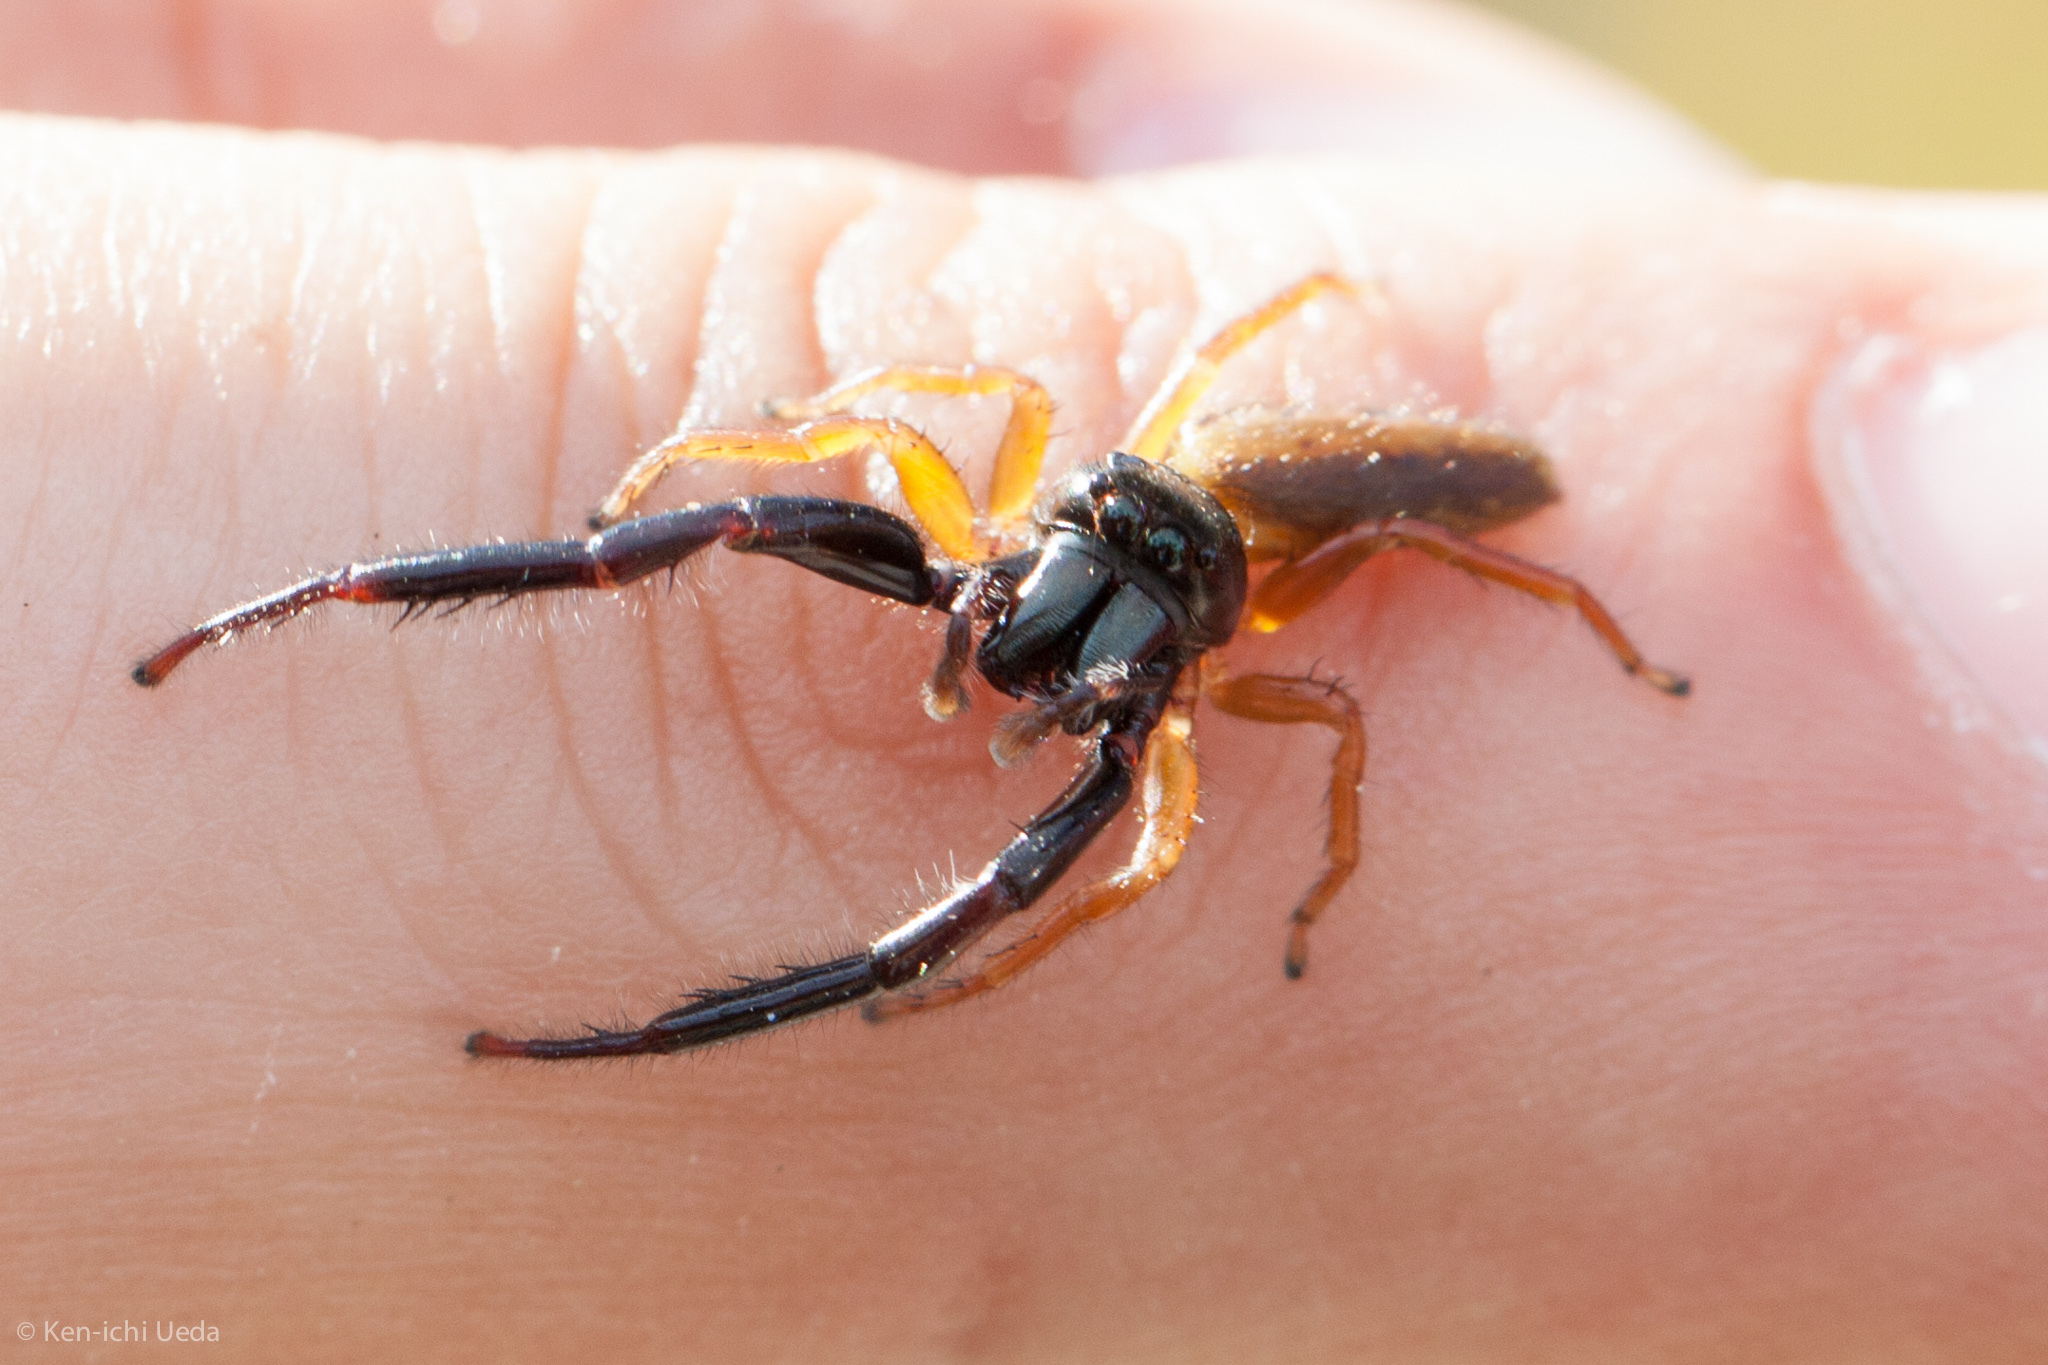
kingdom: Animalia
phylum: Arthropoda
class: Arachnida
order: Araneae
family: Salticidae
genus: Trite
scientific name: Trite planiceps
